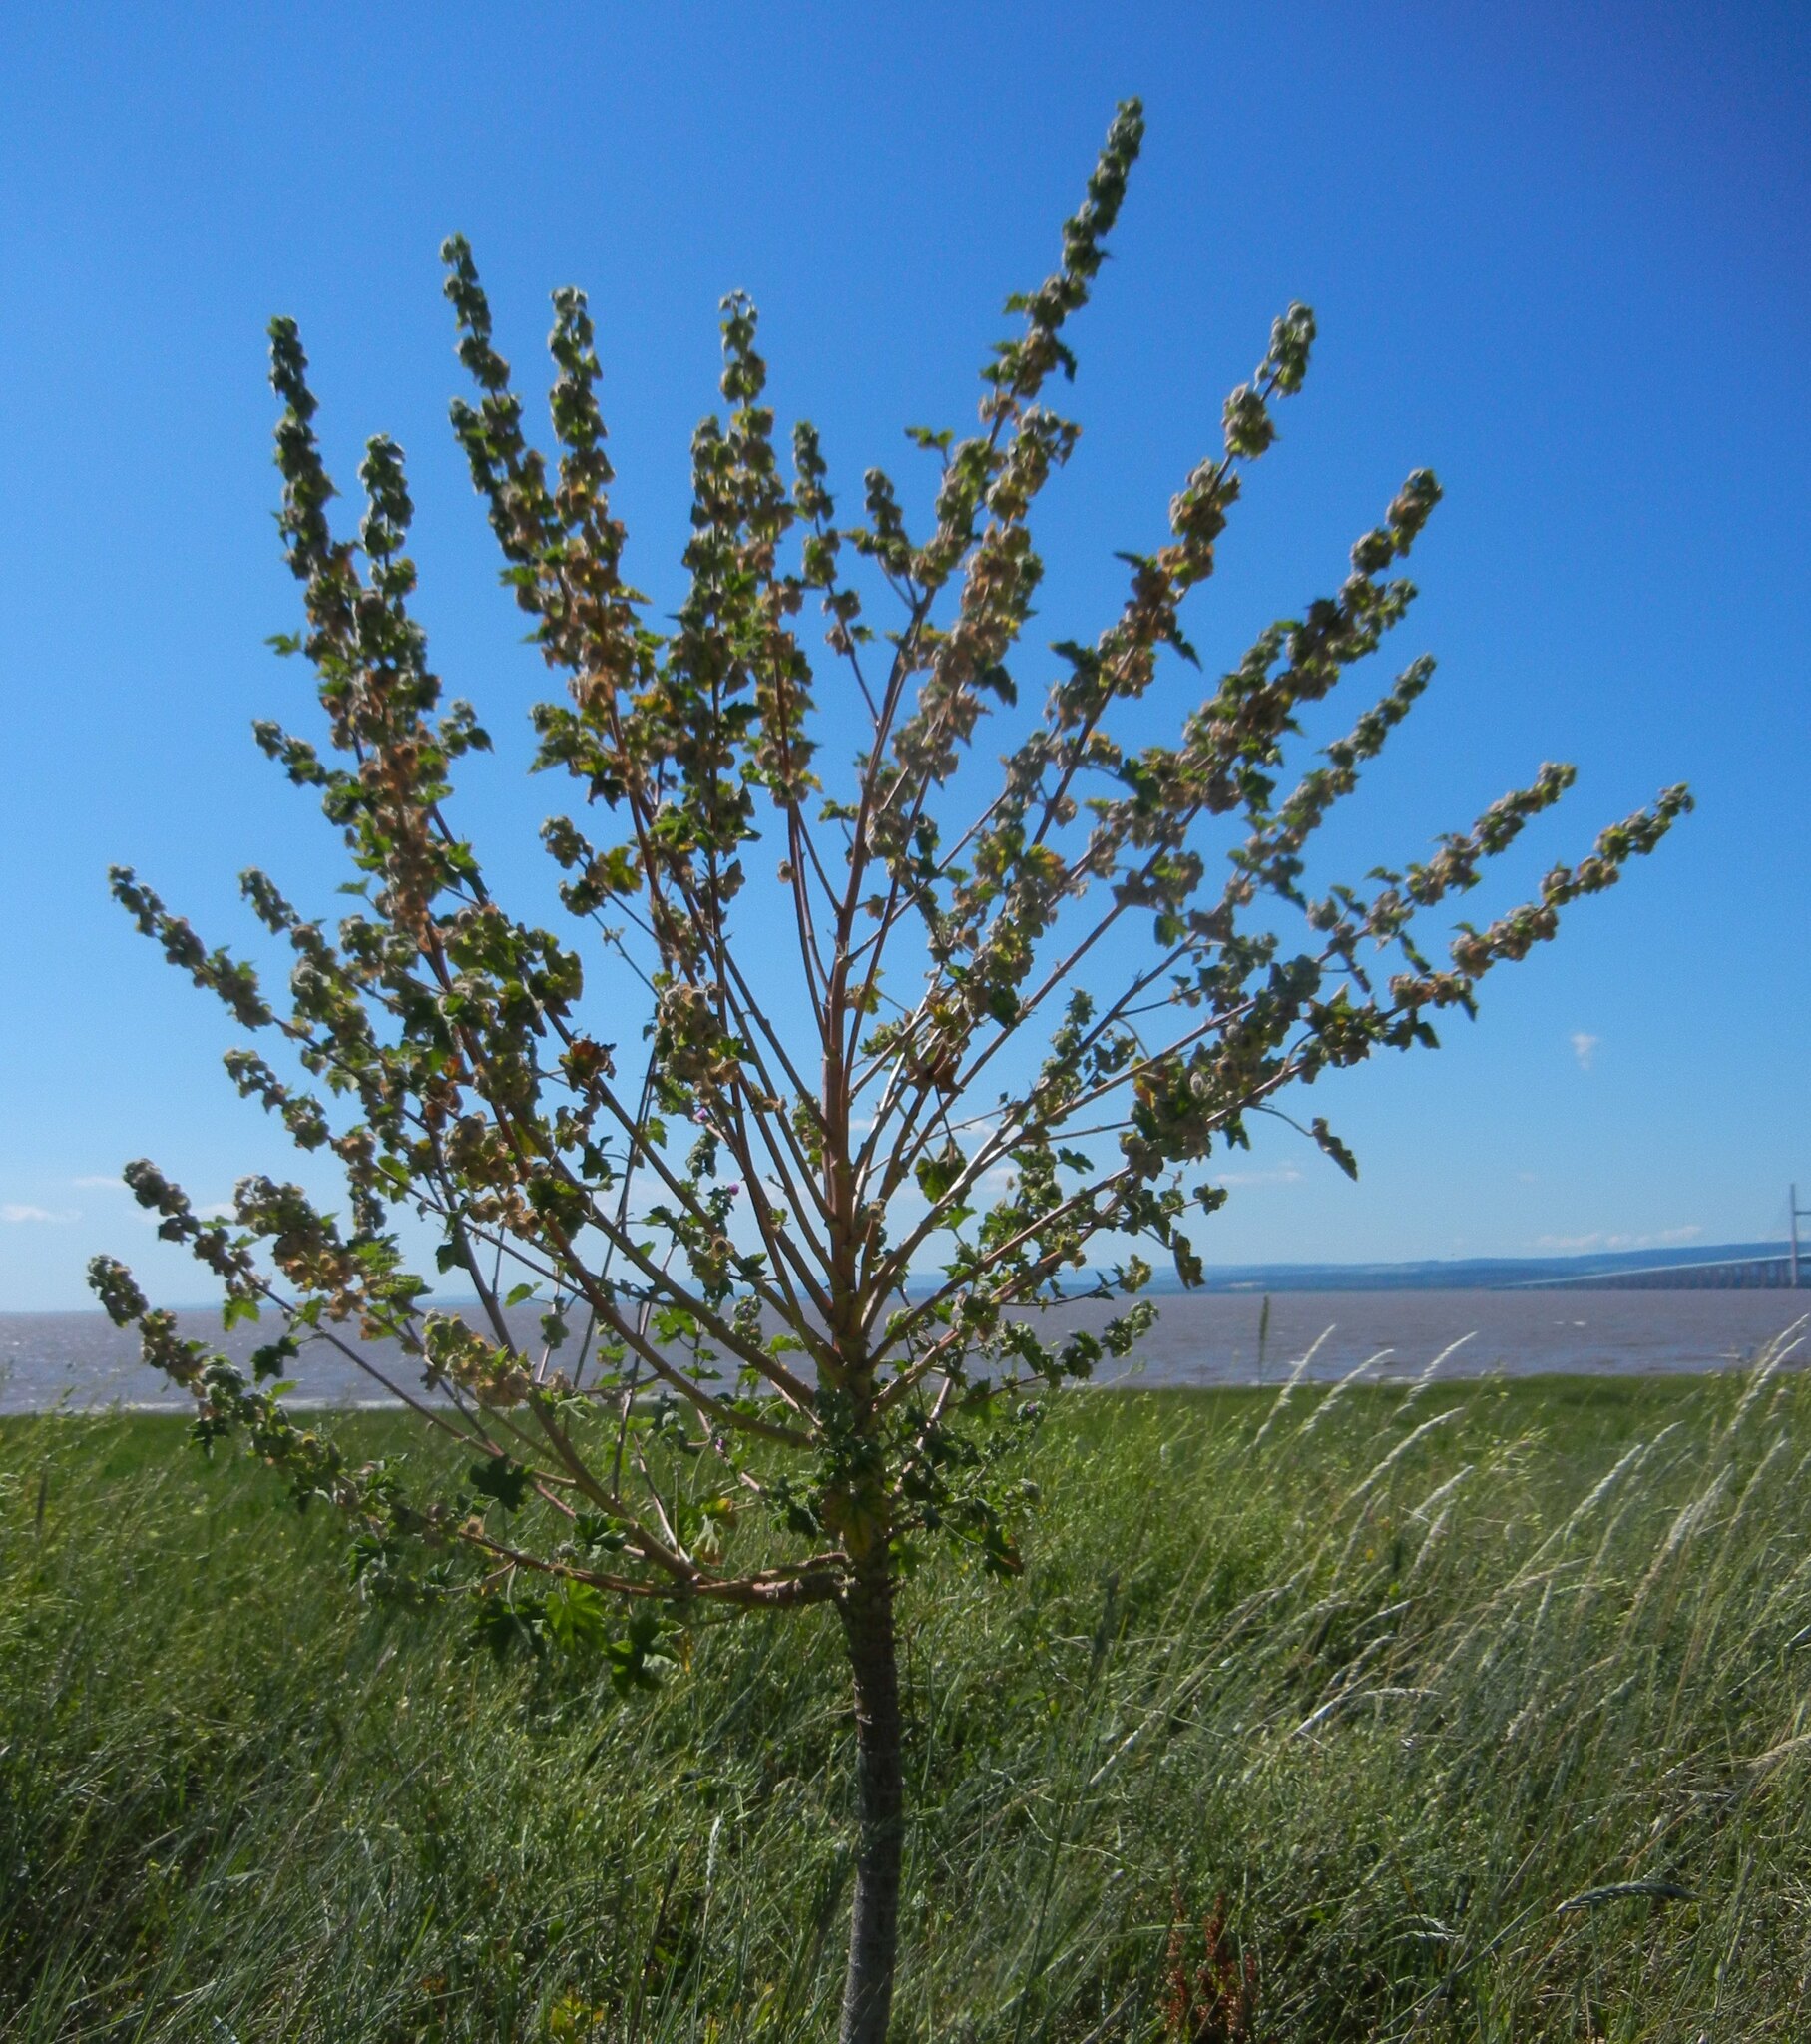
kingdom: Plantae
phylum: Tracheophyta
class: Magnoliopsida
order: Malvales
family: Malvaceae
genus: Malva
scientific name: Malva arborea
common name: Tree mallow
